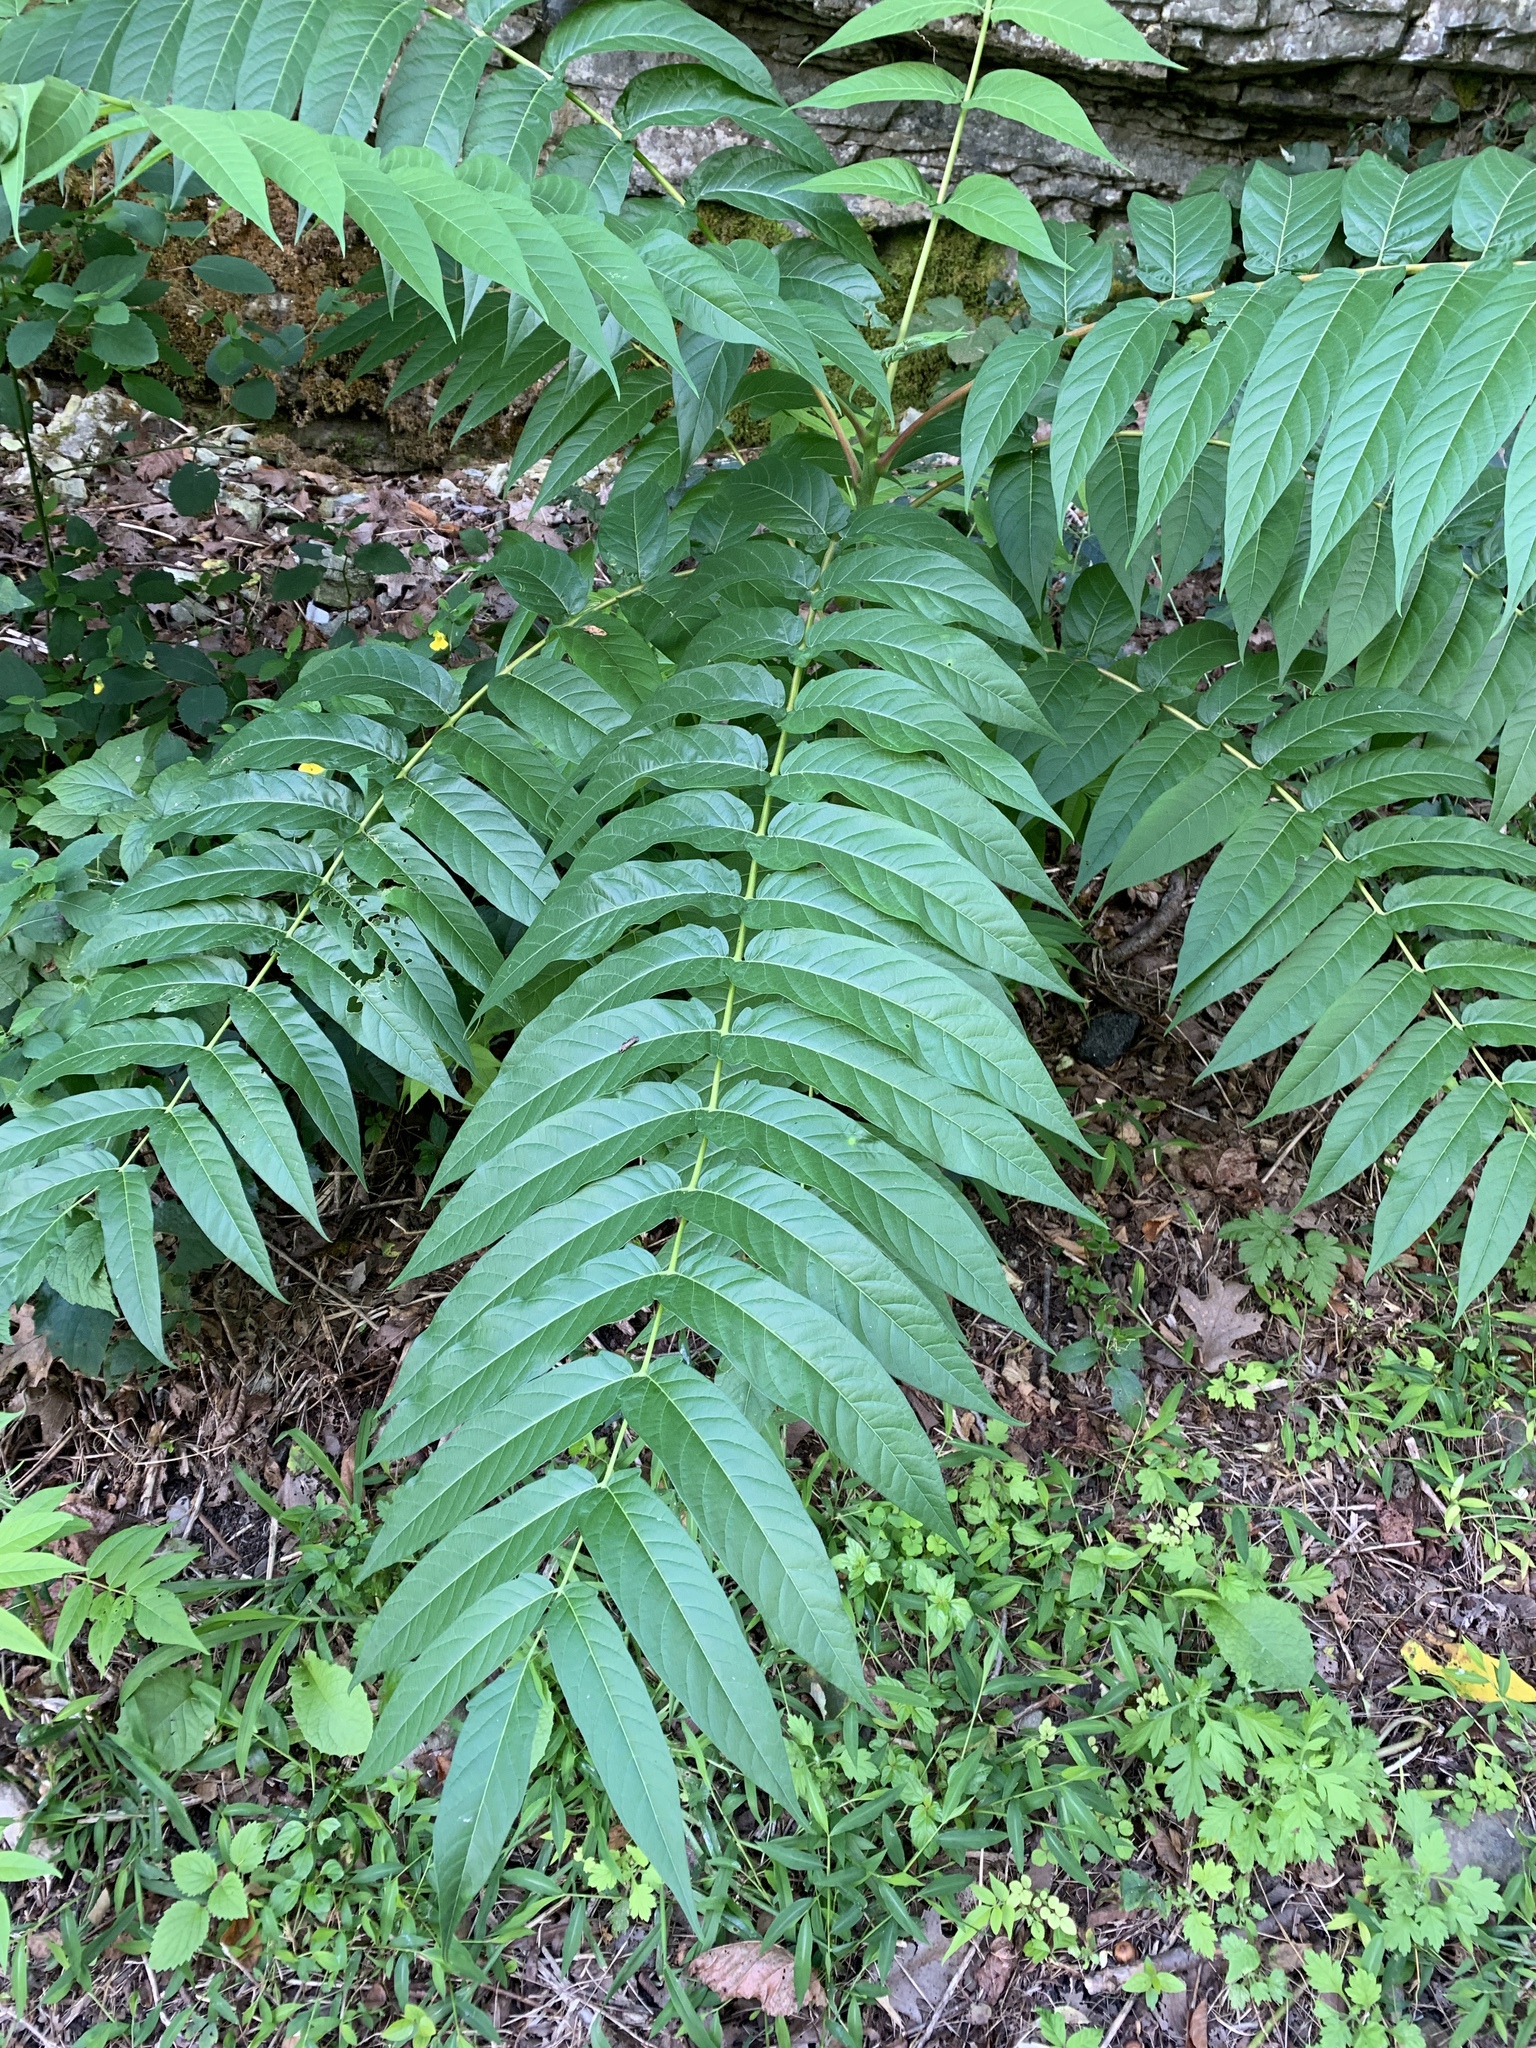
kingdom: Plantae
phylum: Tracheophyta
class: Magnoliopsida
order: Sapindales
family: Simaroubaceae
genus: Ailanthus
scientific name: Ailanthus altissima
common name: Tree-of-heaven
